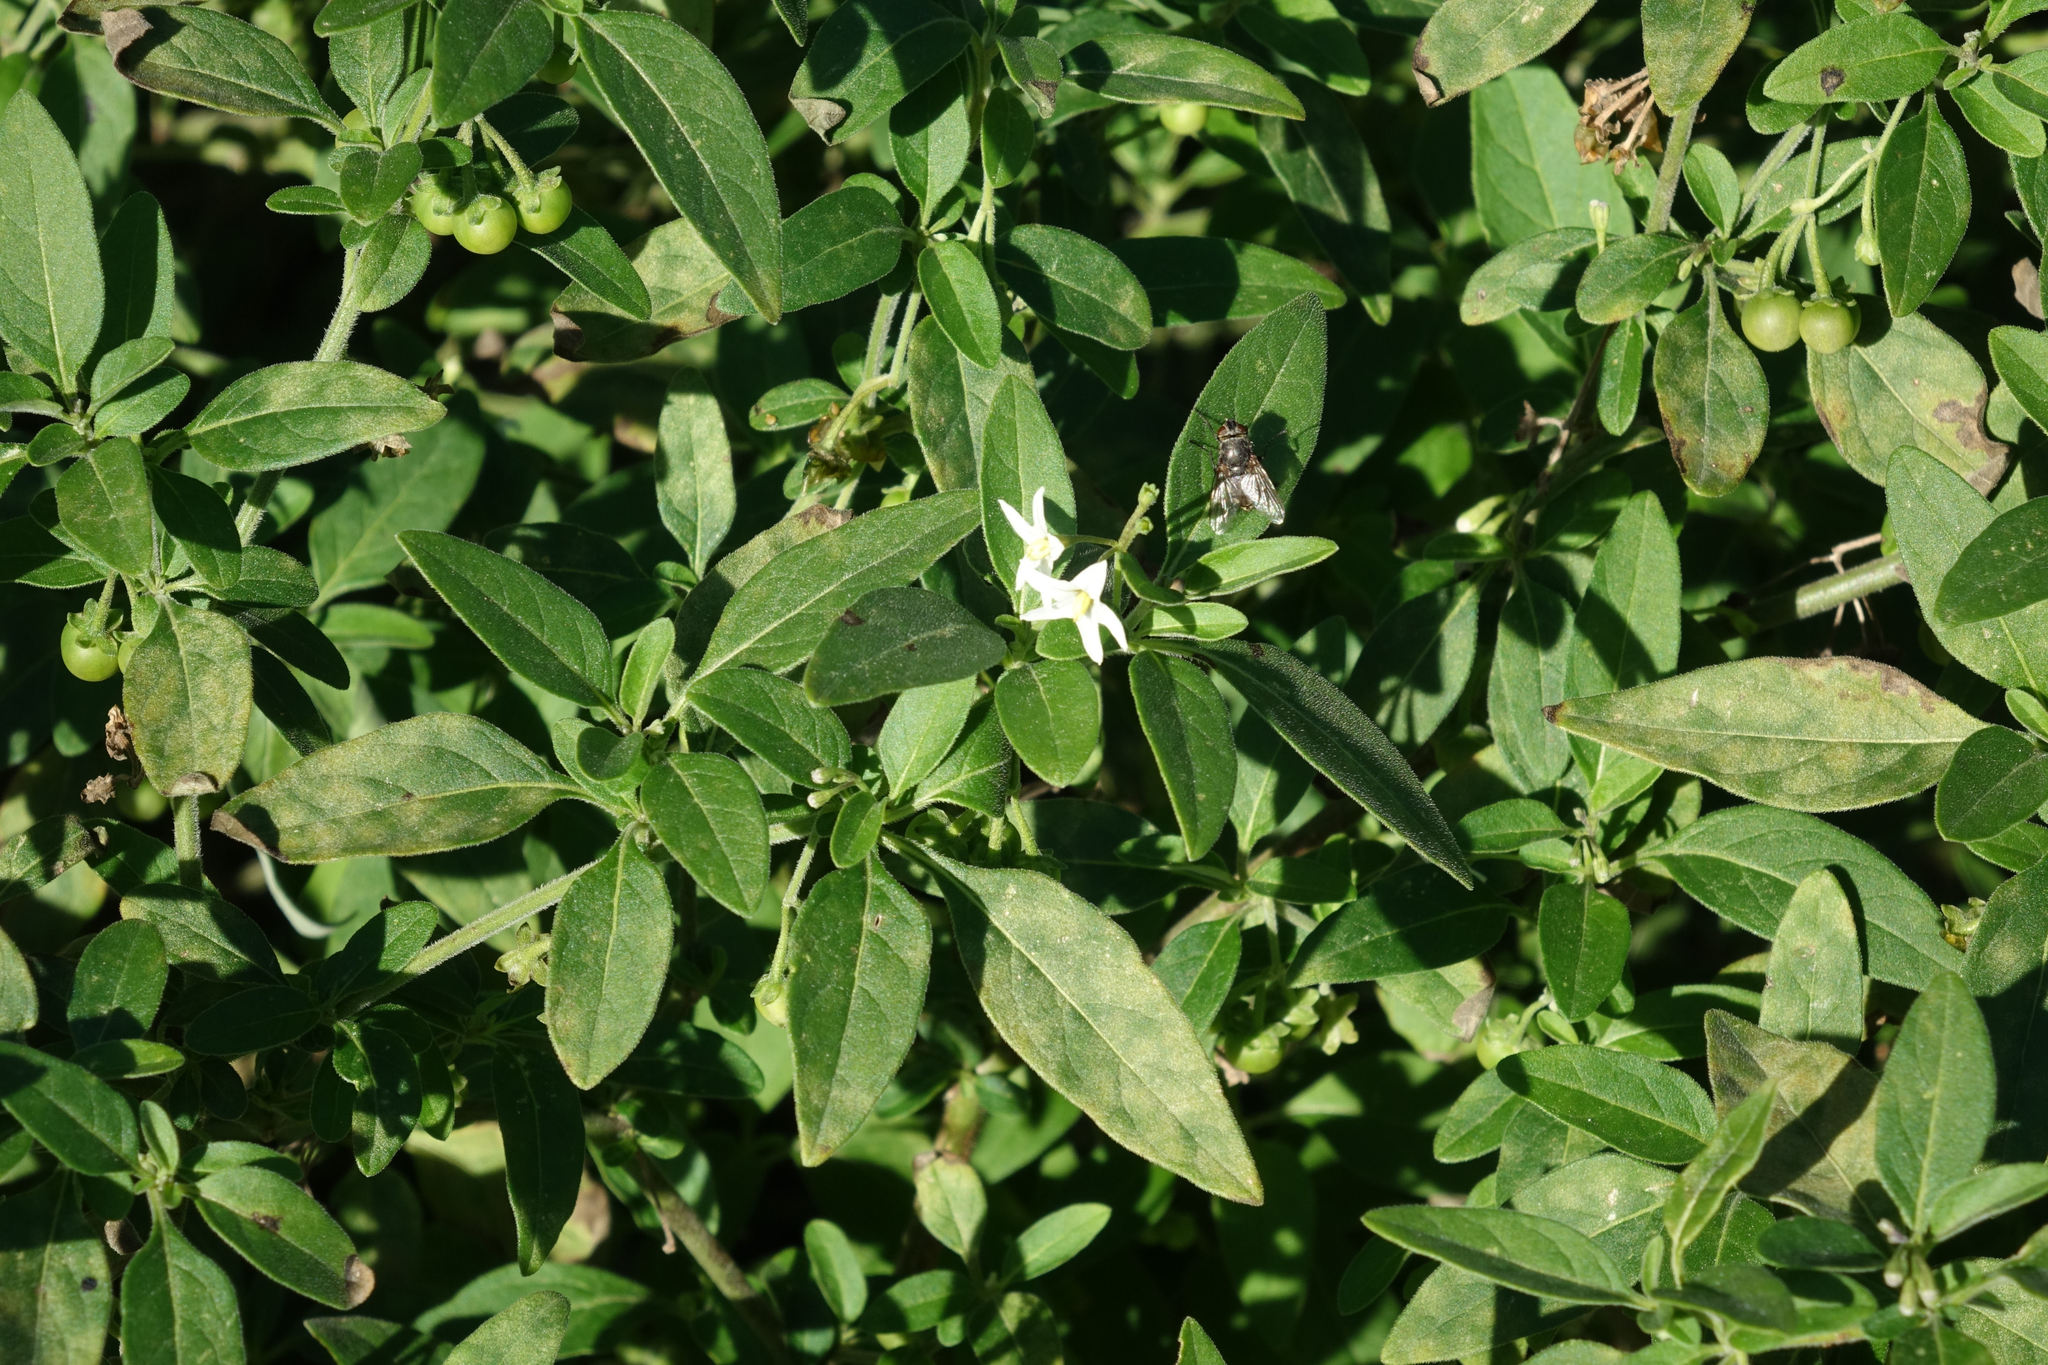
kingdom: Plantae
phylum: Tracheophyta
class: Magnoliopsida
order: Solanales
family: Solanaceae
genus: Solanum
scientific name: Solanum chenopodioides
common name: Tall nightshade
